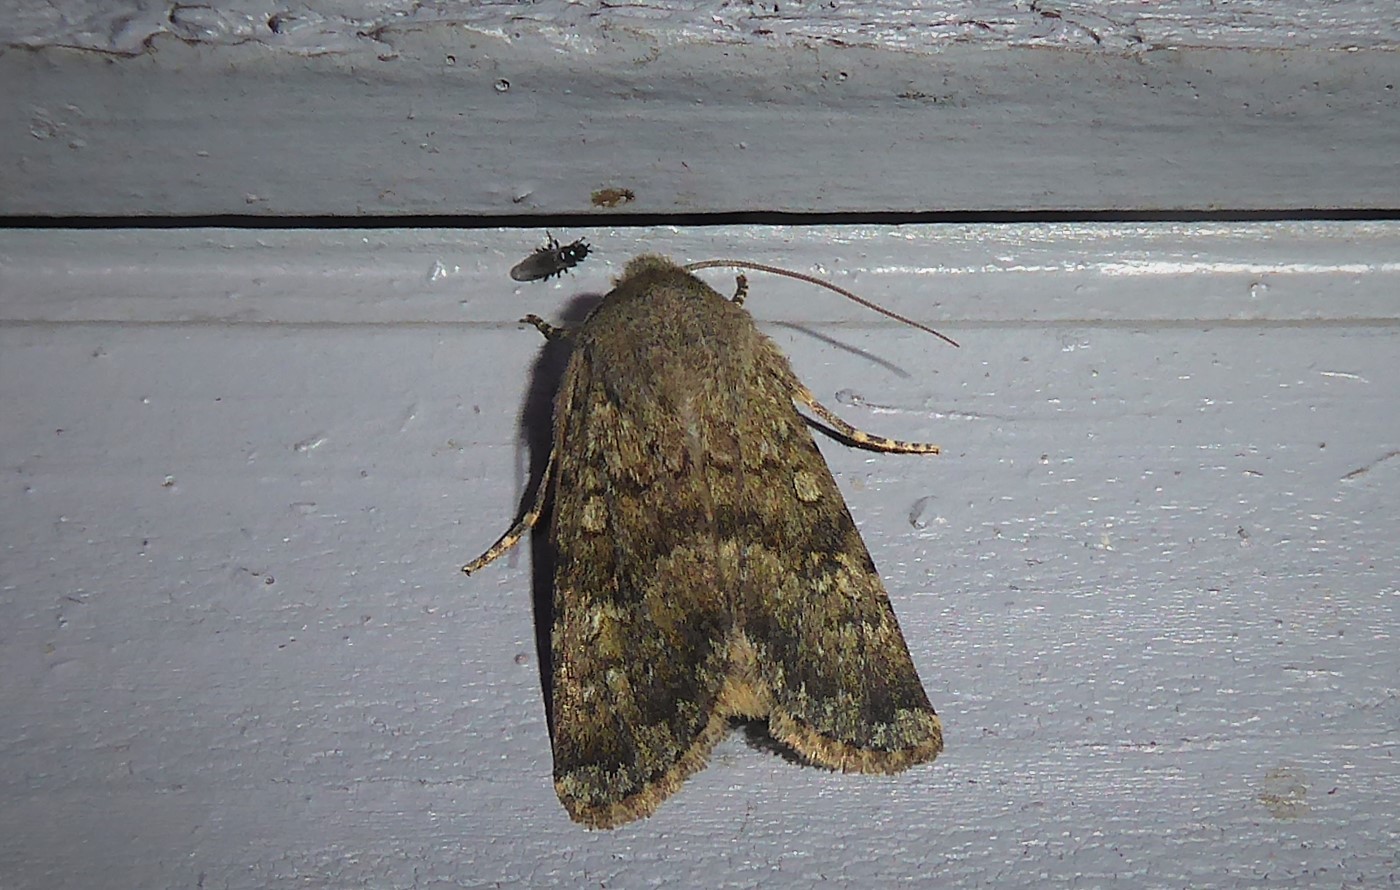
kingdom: Animalia
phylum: Arthropoda
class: Insecta
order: Lepidoptera
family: Noctuidae
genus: Ichneutica
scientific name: Ichneutica moderata
